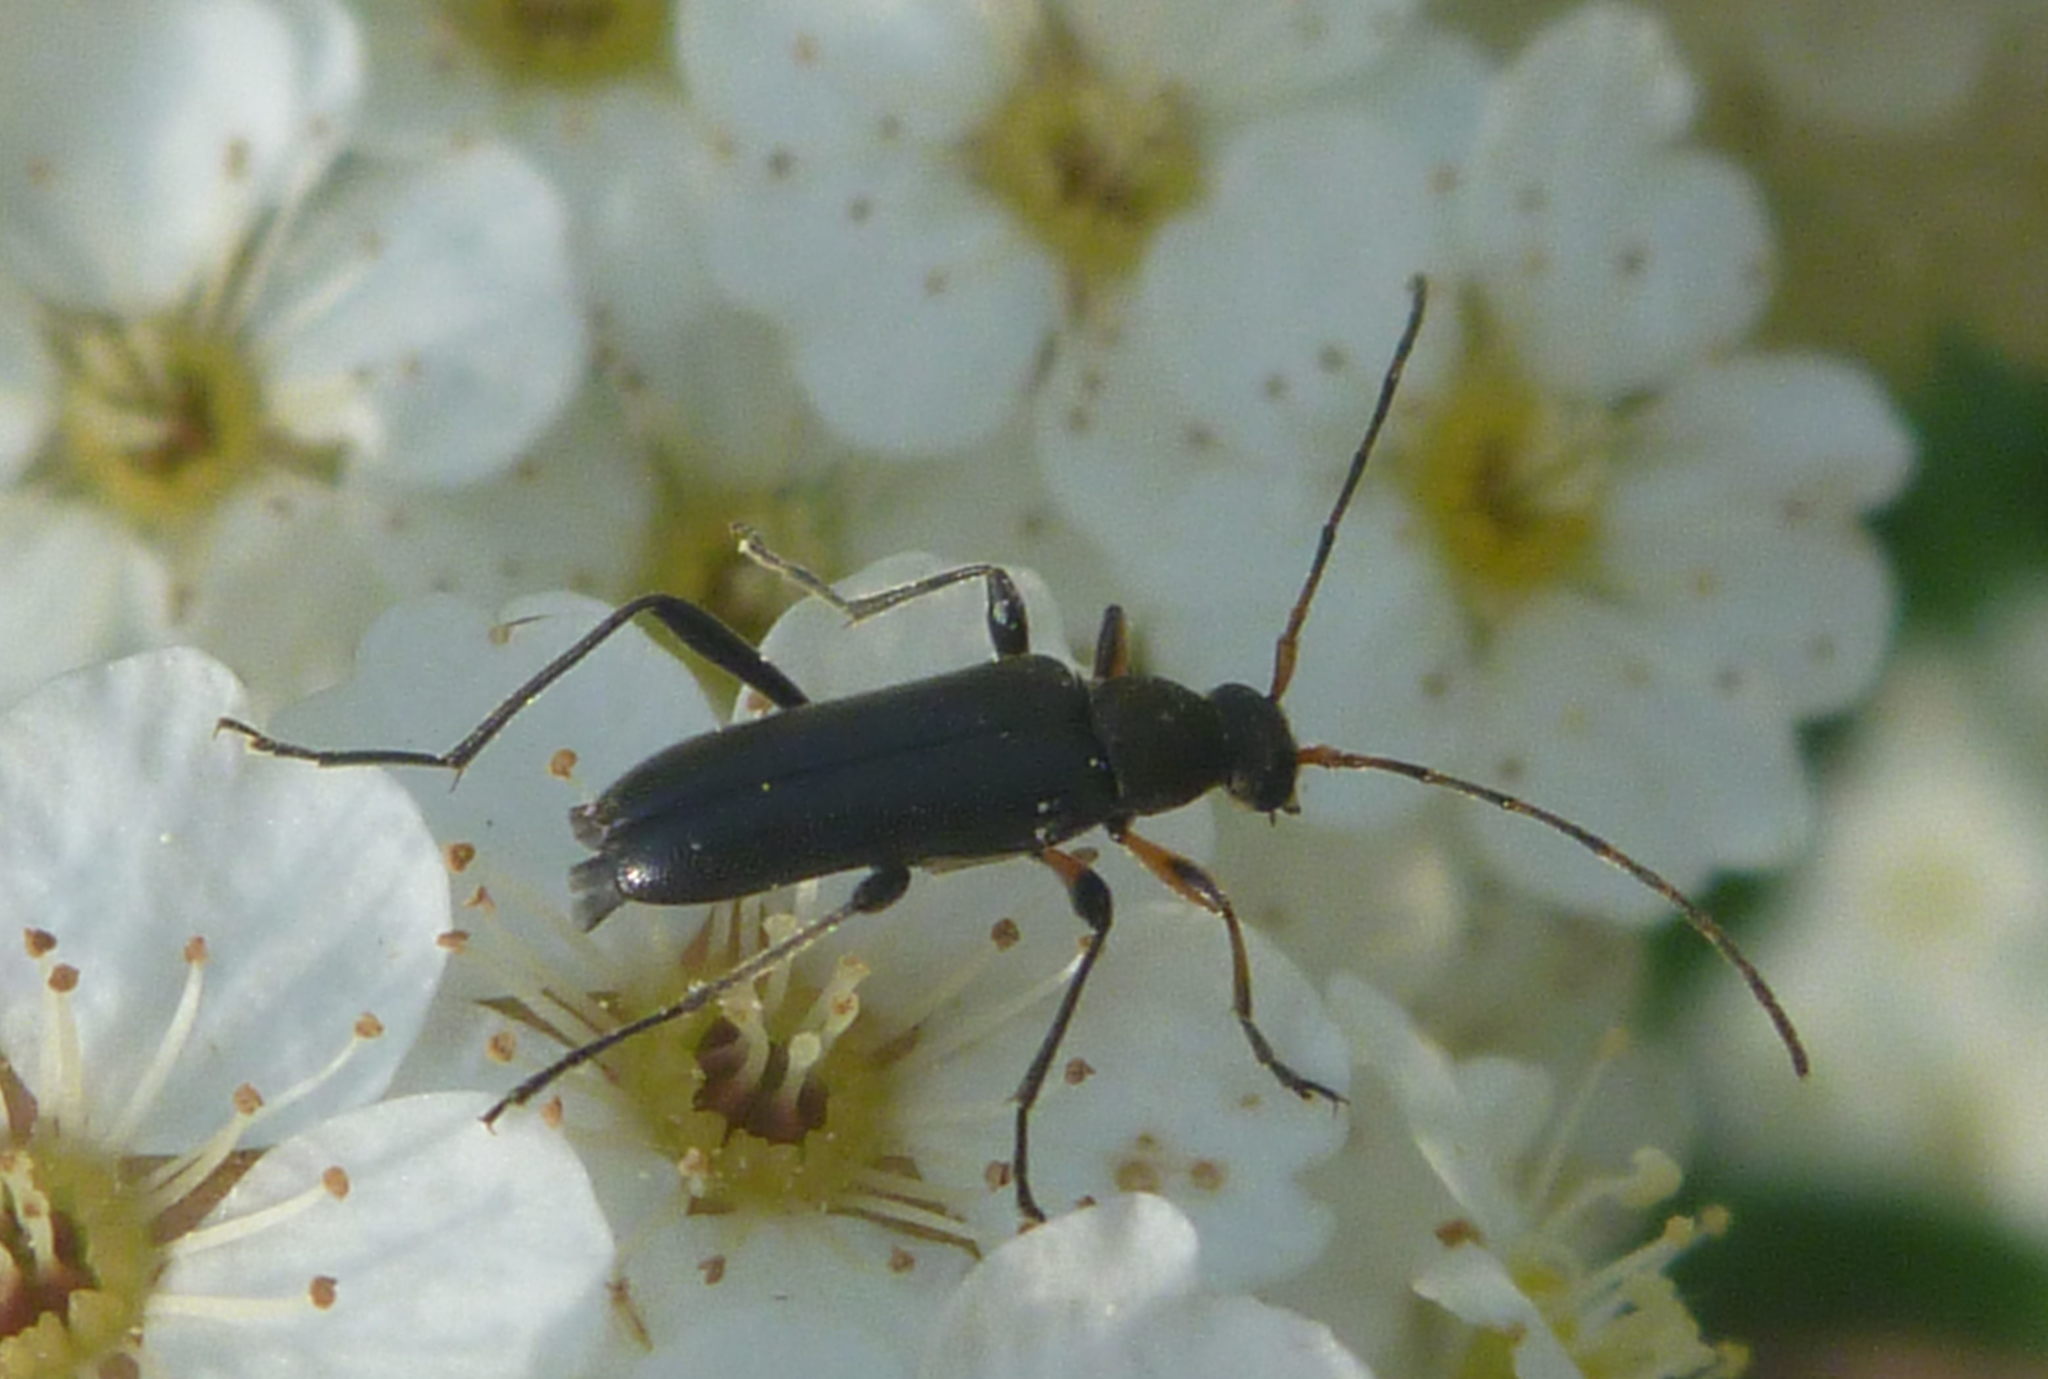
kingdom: Animalia
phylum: Arthropoda
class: Insecta
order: Coleoptera
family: Cerambycidae
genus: Grammoptera
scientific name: Grammoptera ruficornis
